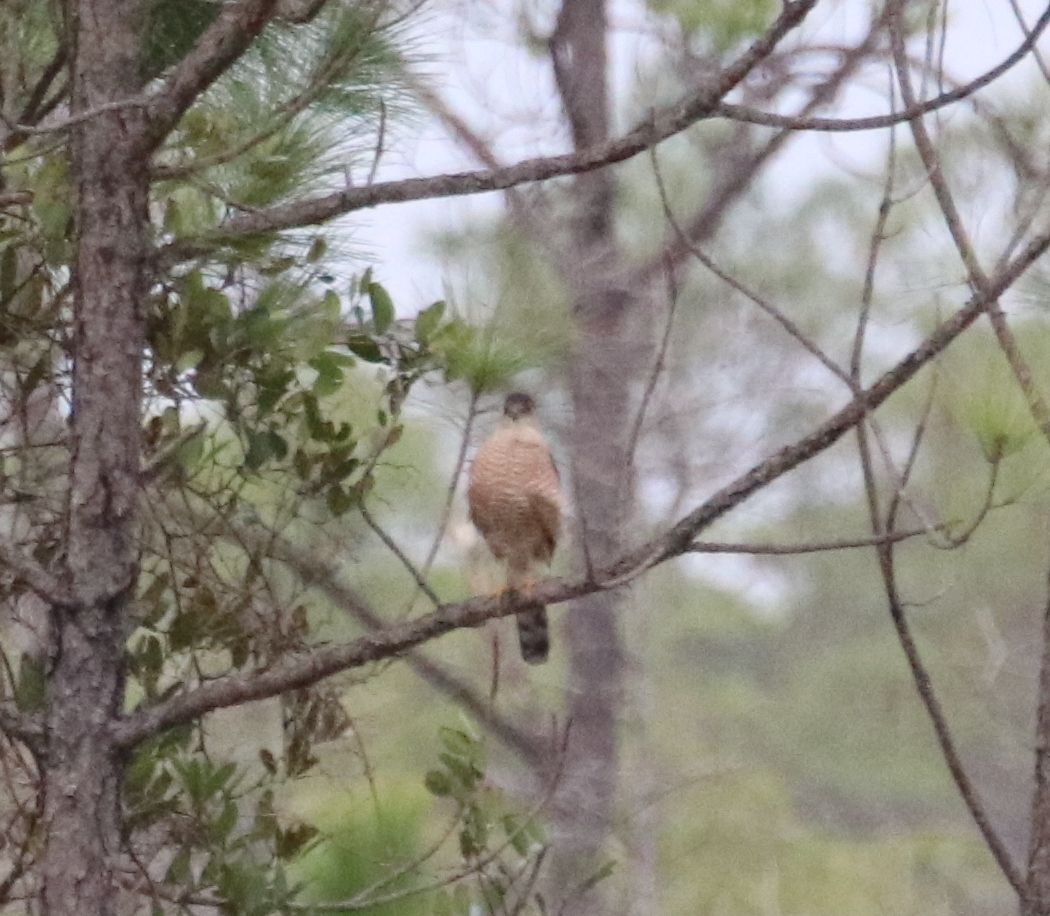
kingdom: Animalia
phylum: Chordata
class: Aves
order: Accipitriformes
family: Accipitridae
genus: Accipiter
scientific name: Accipiter cooperii
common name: Cooper's hawk
